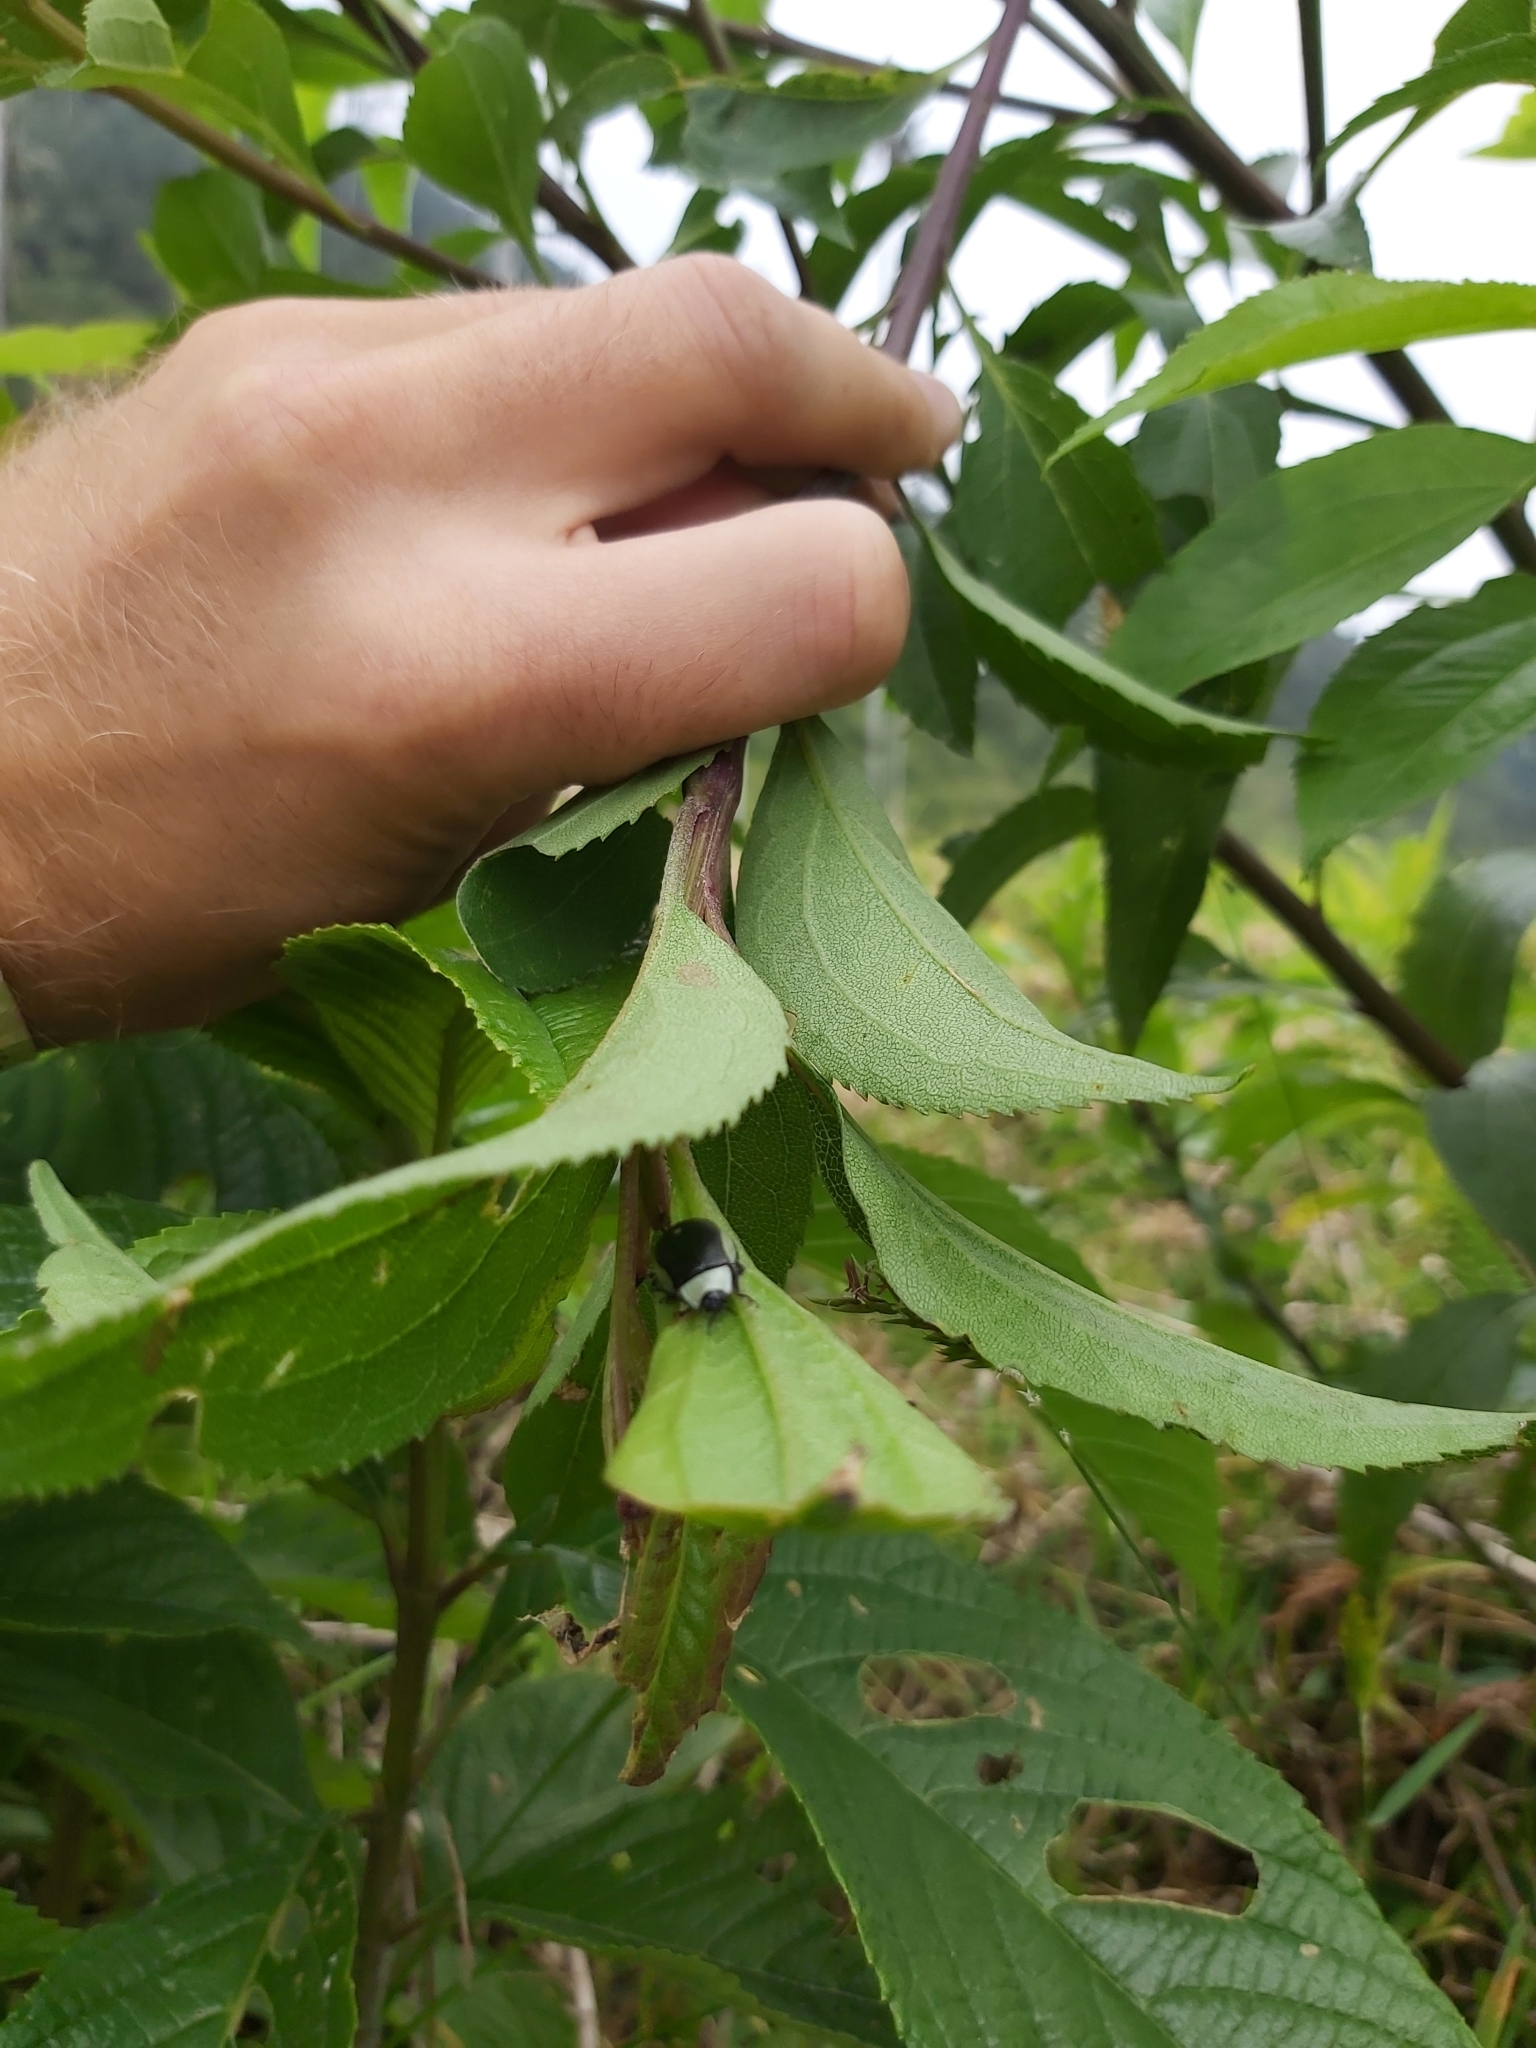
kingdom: Animalia
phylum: Arthropoda
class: Insecta
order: Coleoptera
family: Chrysomelidae
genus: Aspicela
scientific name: Aspicela
